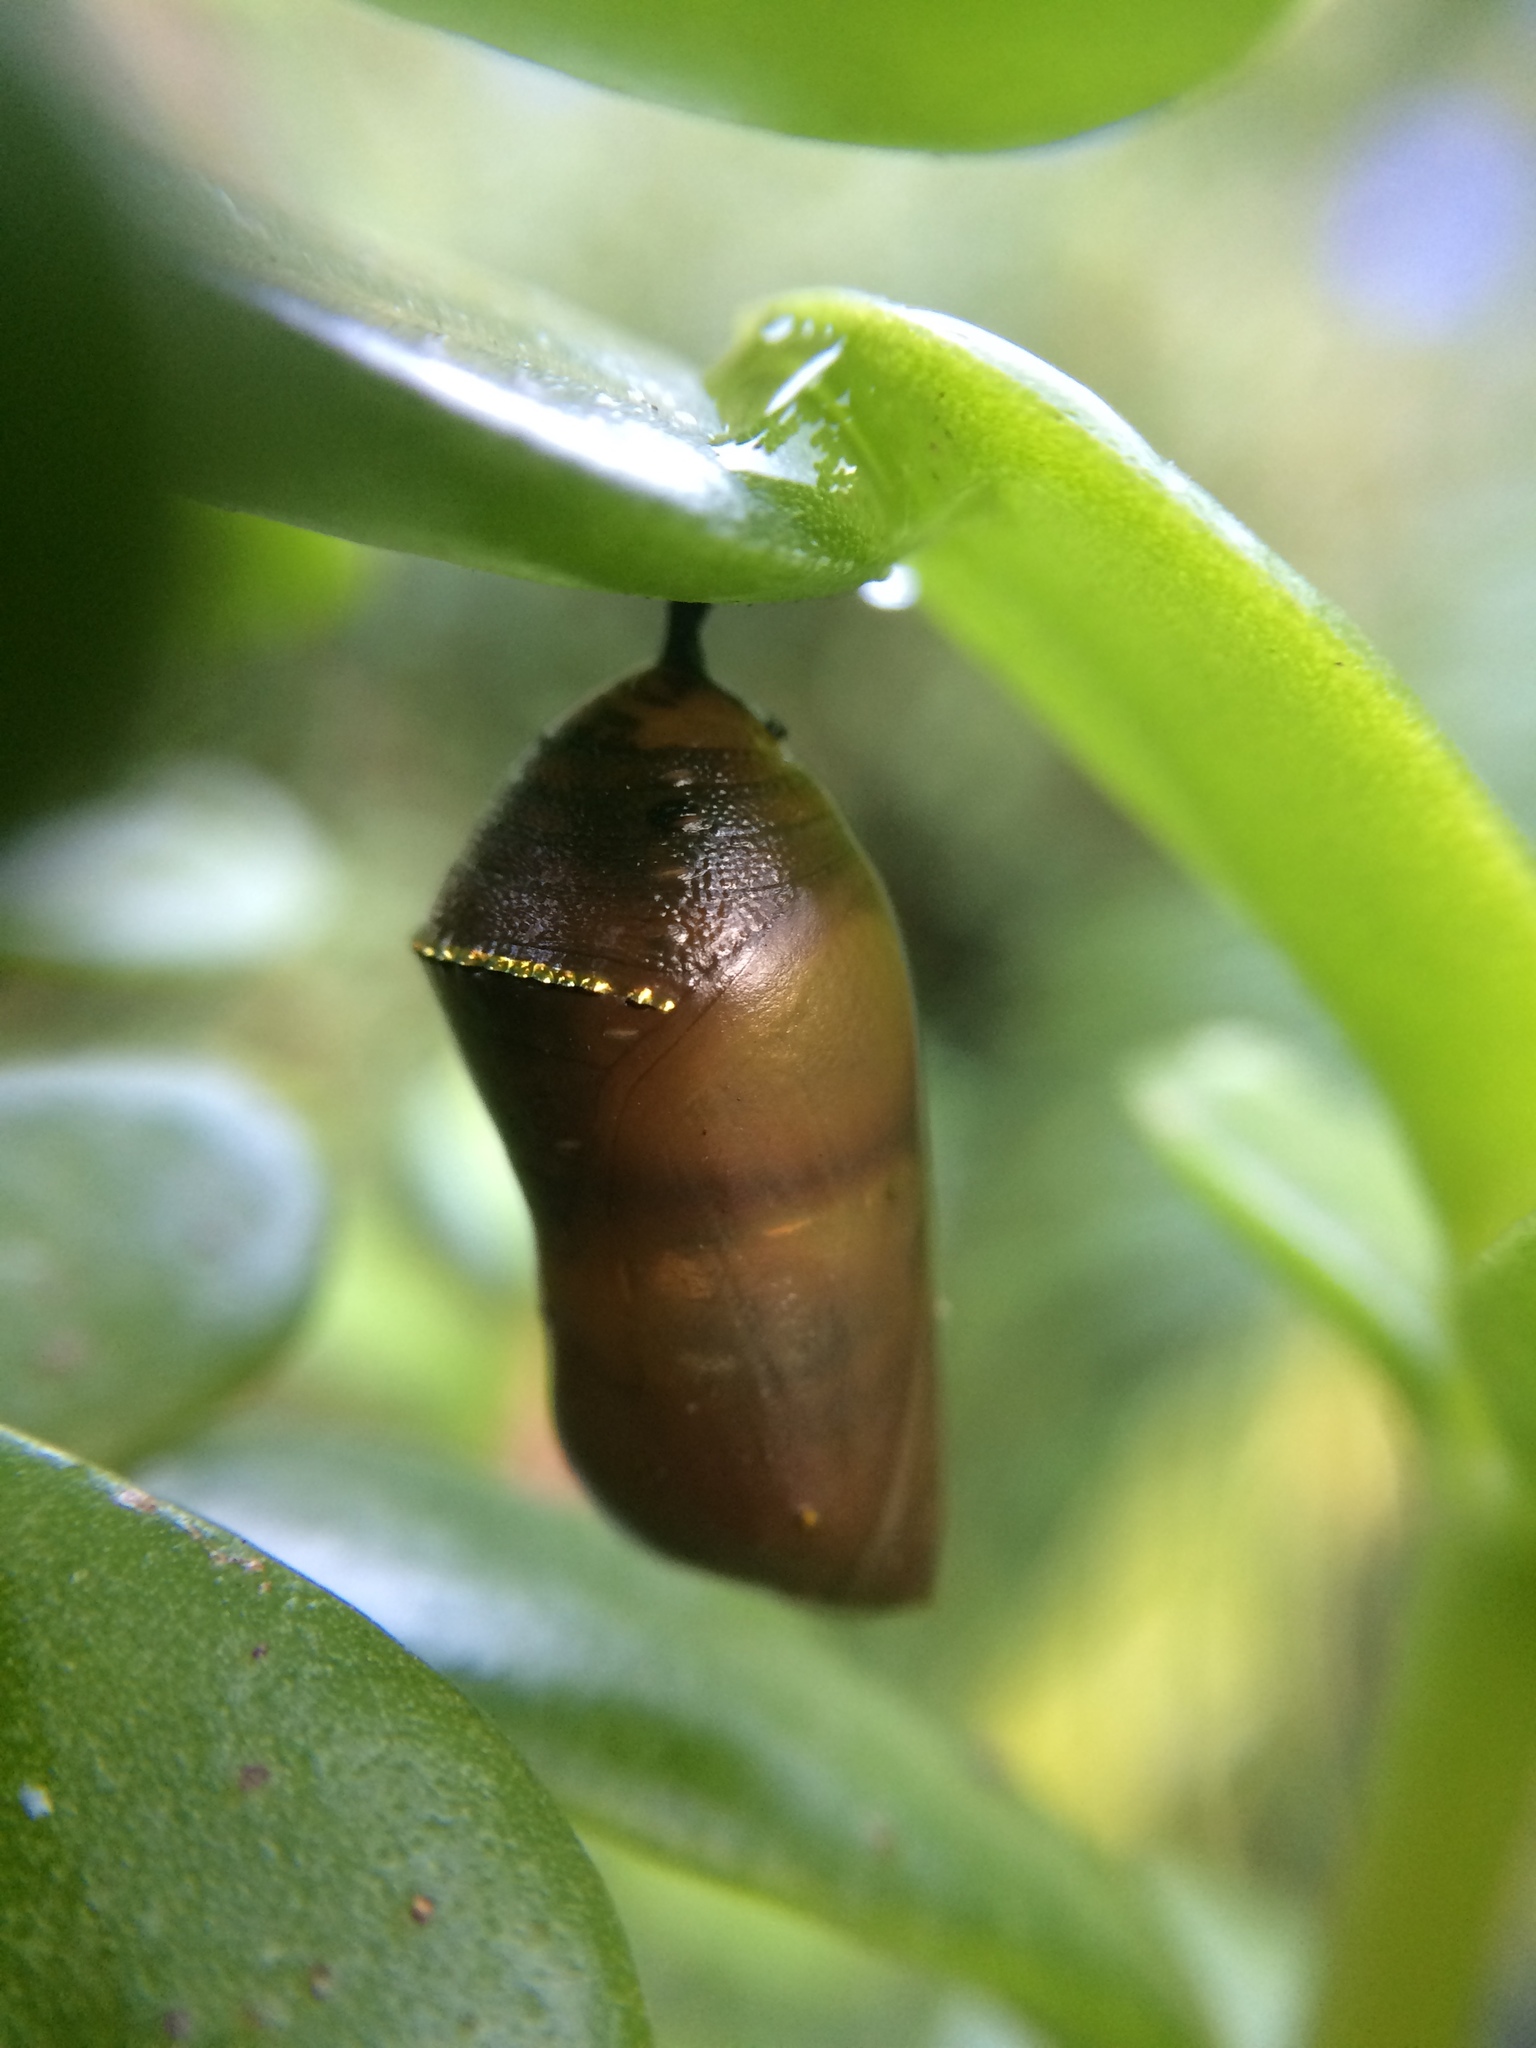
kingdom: Animalia
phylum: Arthropoda
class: Insecta
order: Lepidoptera
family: Nymphalidae
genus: Danaus
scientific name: Danaus chrysippus
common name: Plain tiger
